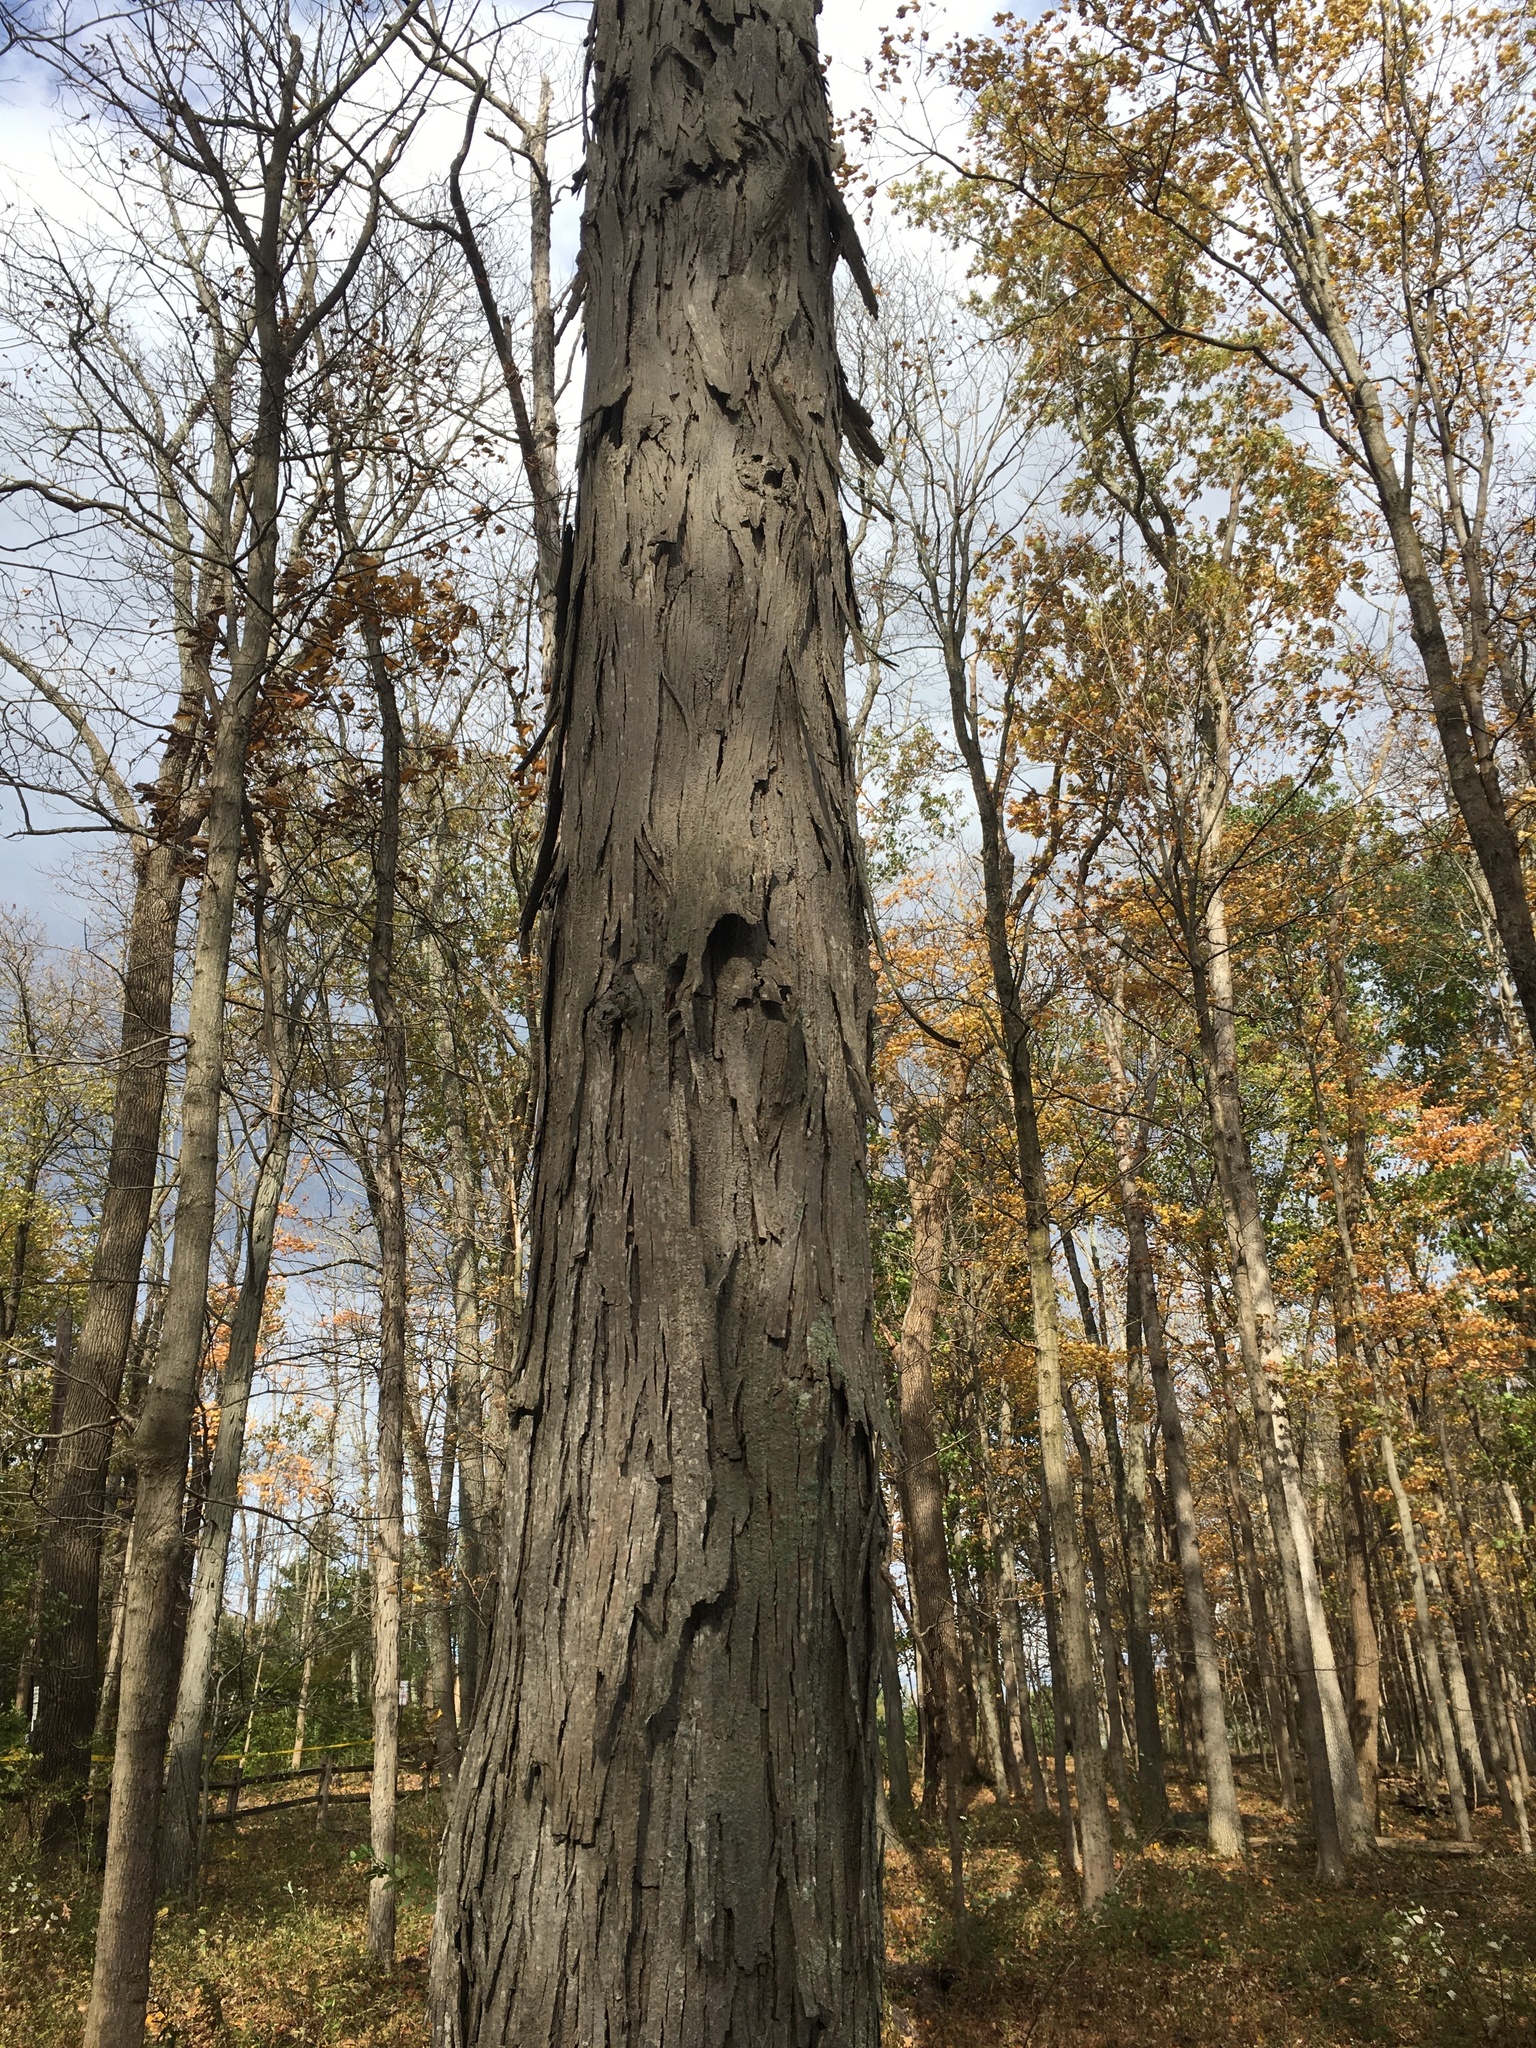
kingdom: Plantae
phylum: Tracheophyta
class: Magnoliopsida
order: Fagales
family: Juglandaceae
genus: Carya
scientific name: Carya ovata
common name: Shagbark hickory
